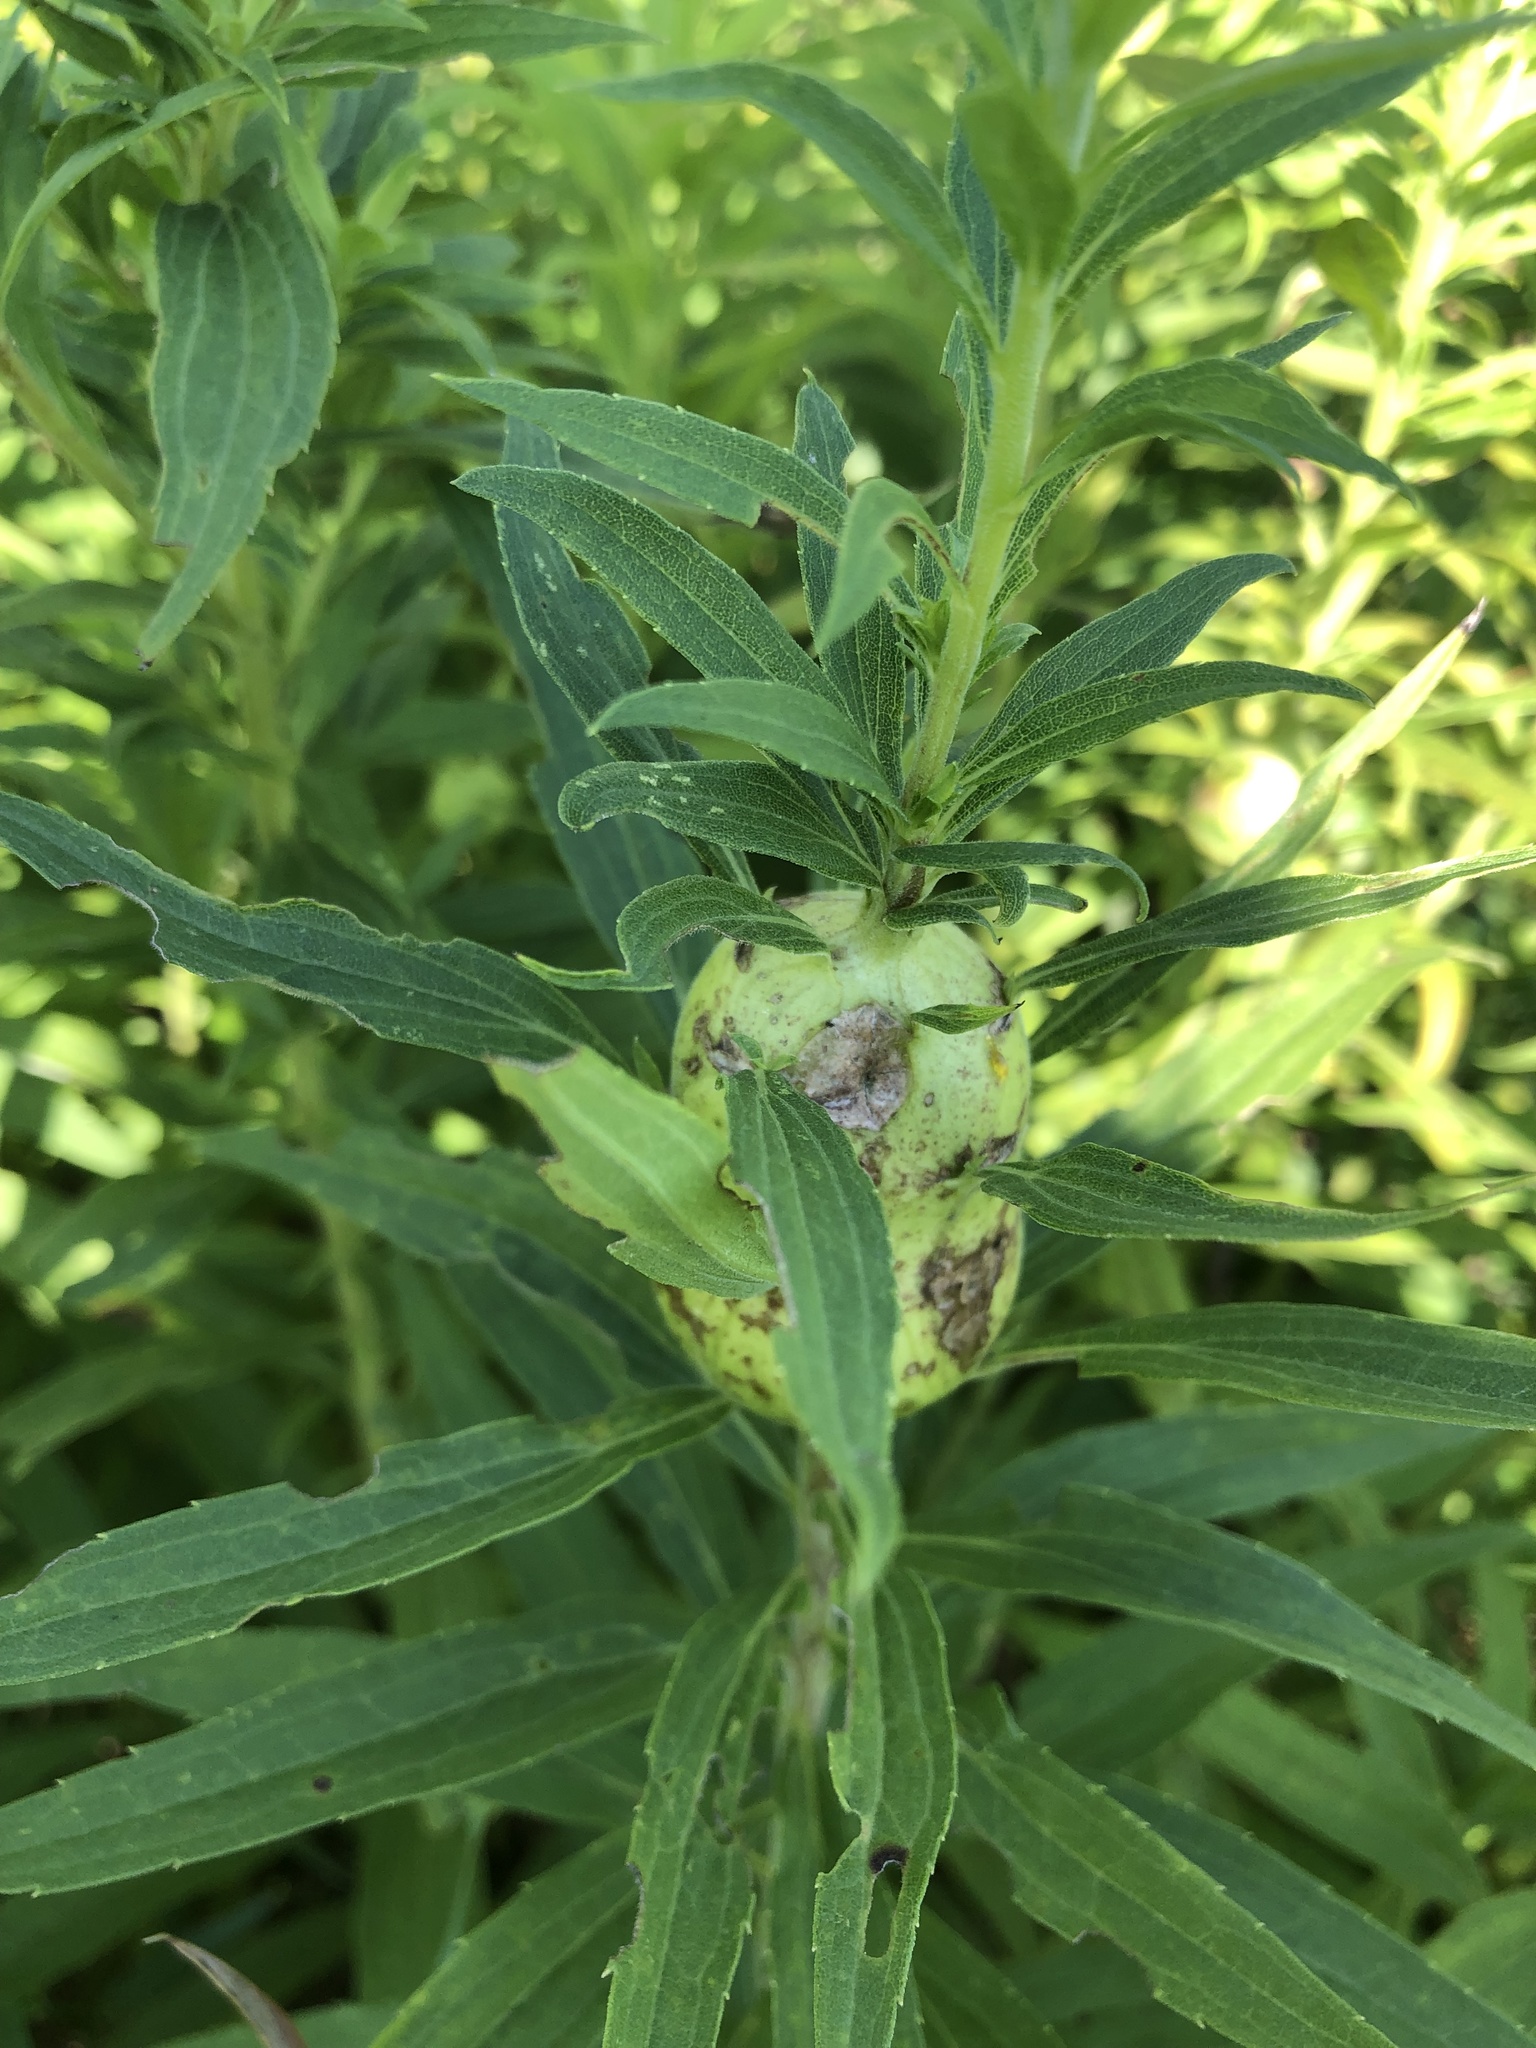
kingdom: Animalia
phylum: Arthropoda
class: Insecta
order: Diptera
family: Tephritidae
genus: Eurosta
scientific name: Eurosta solidaginis
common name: Goldenrod gall fly
